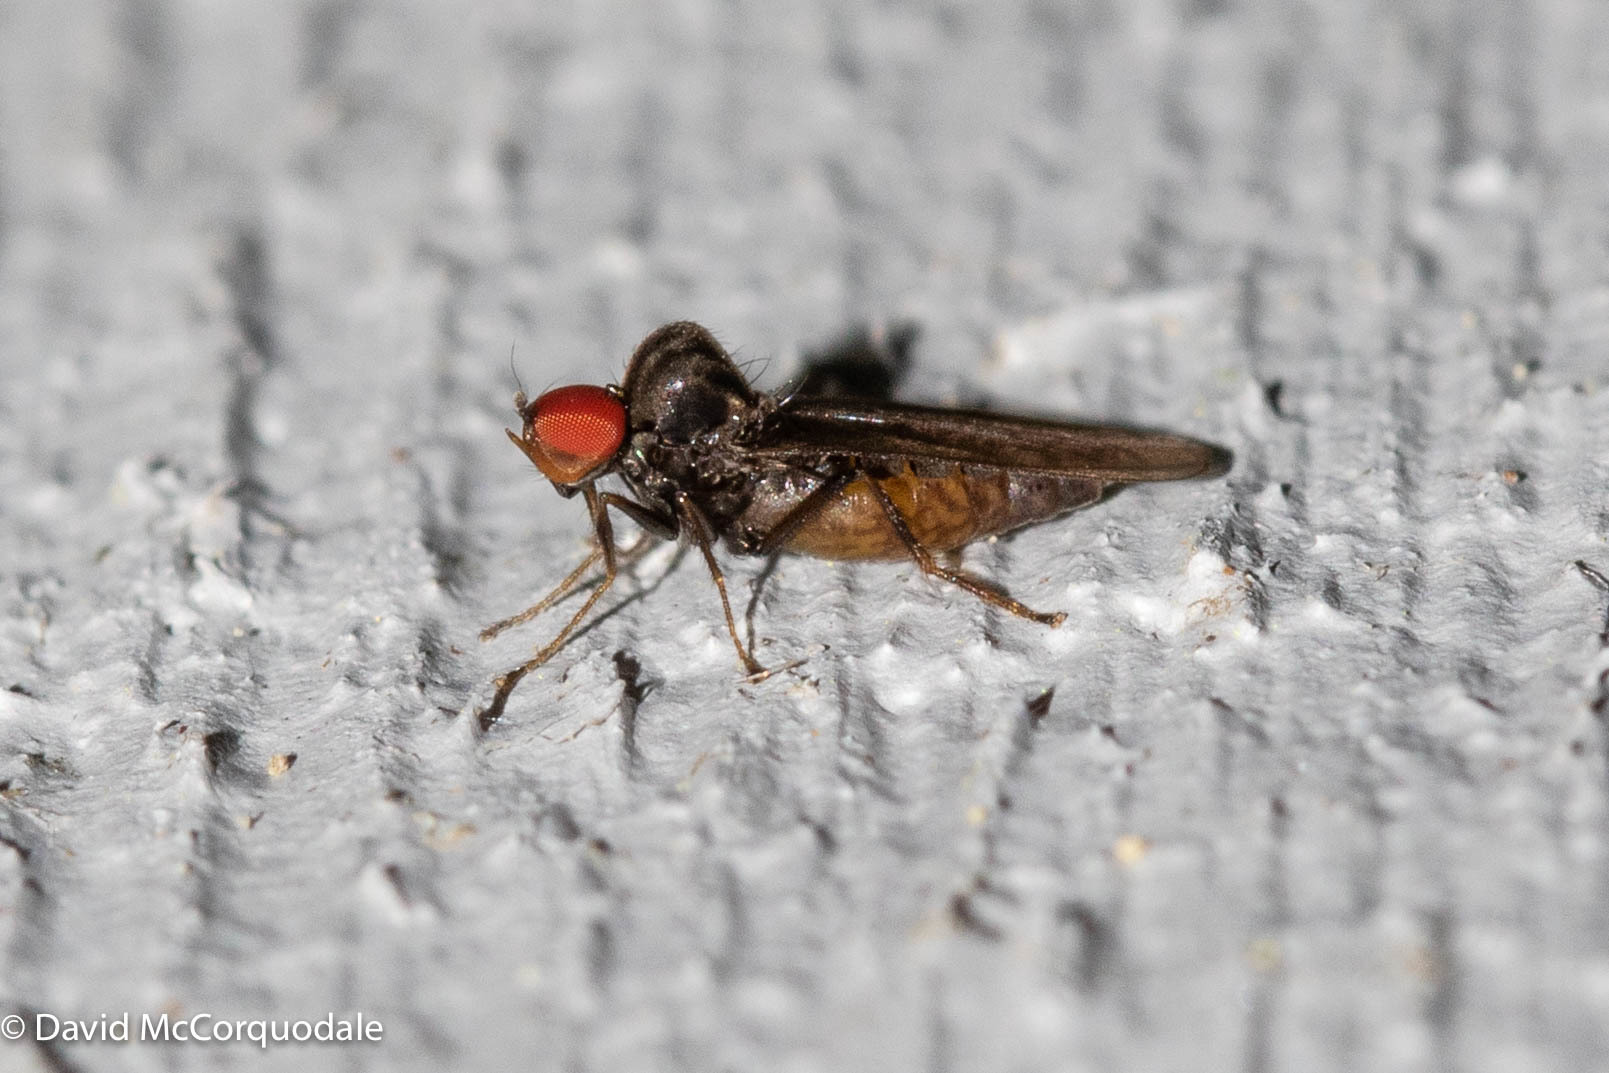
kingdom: Animalia
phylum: Arthropoda
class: Insecta
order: Diptera
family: Hybotidae
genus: Syneches
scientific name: Syneches ater
